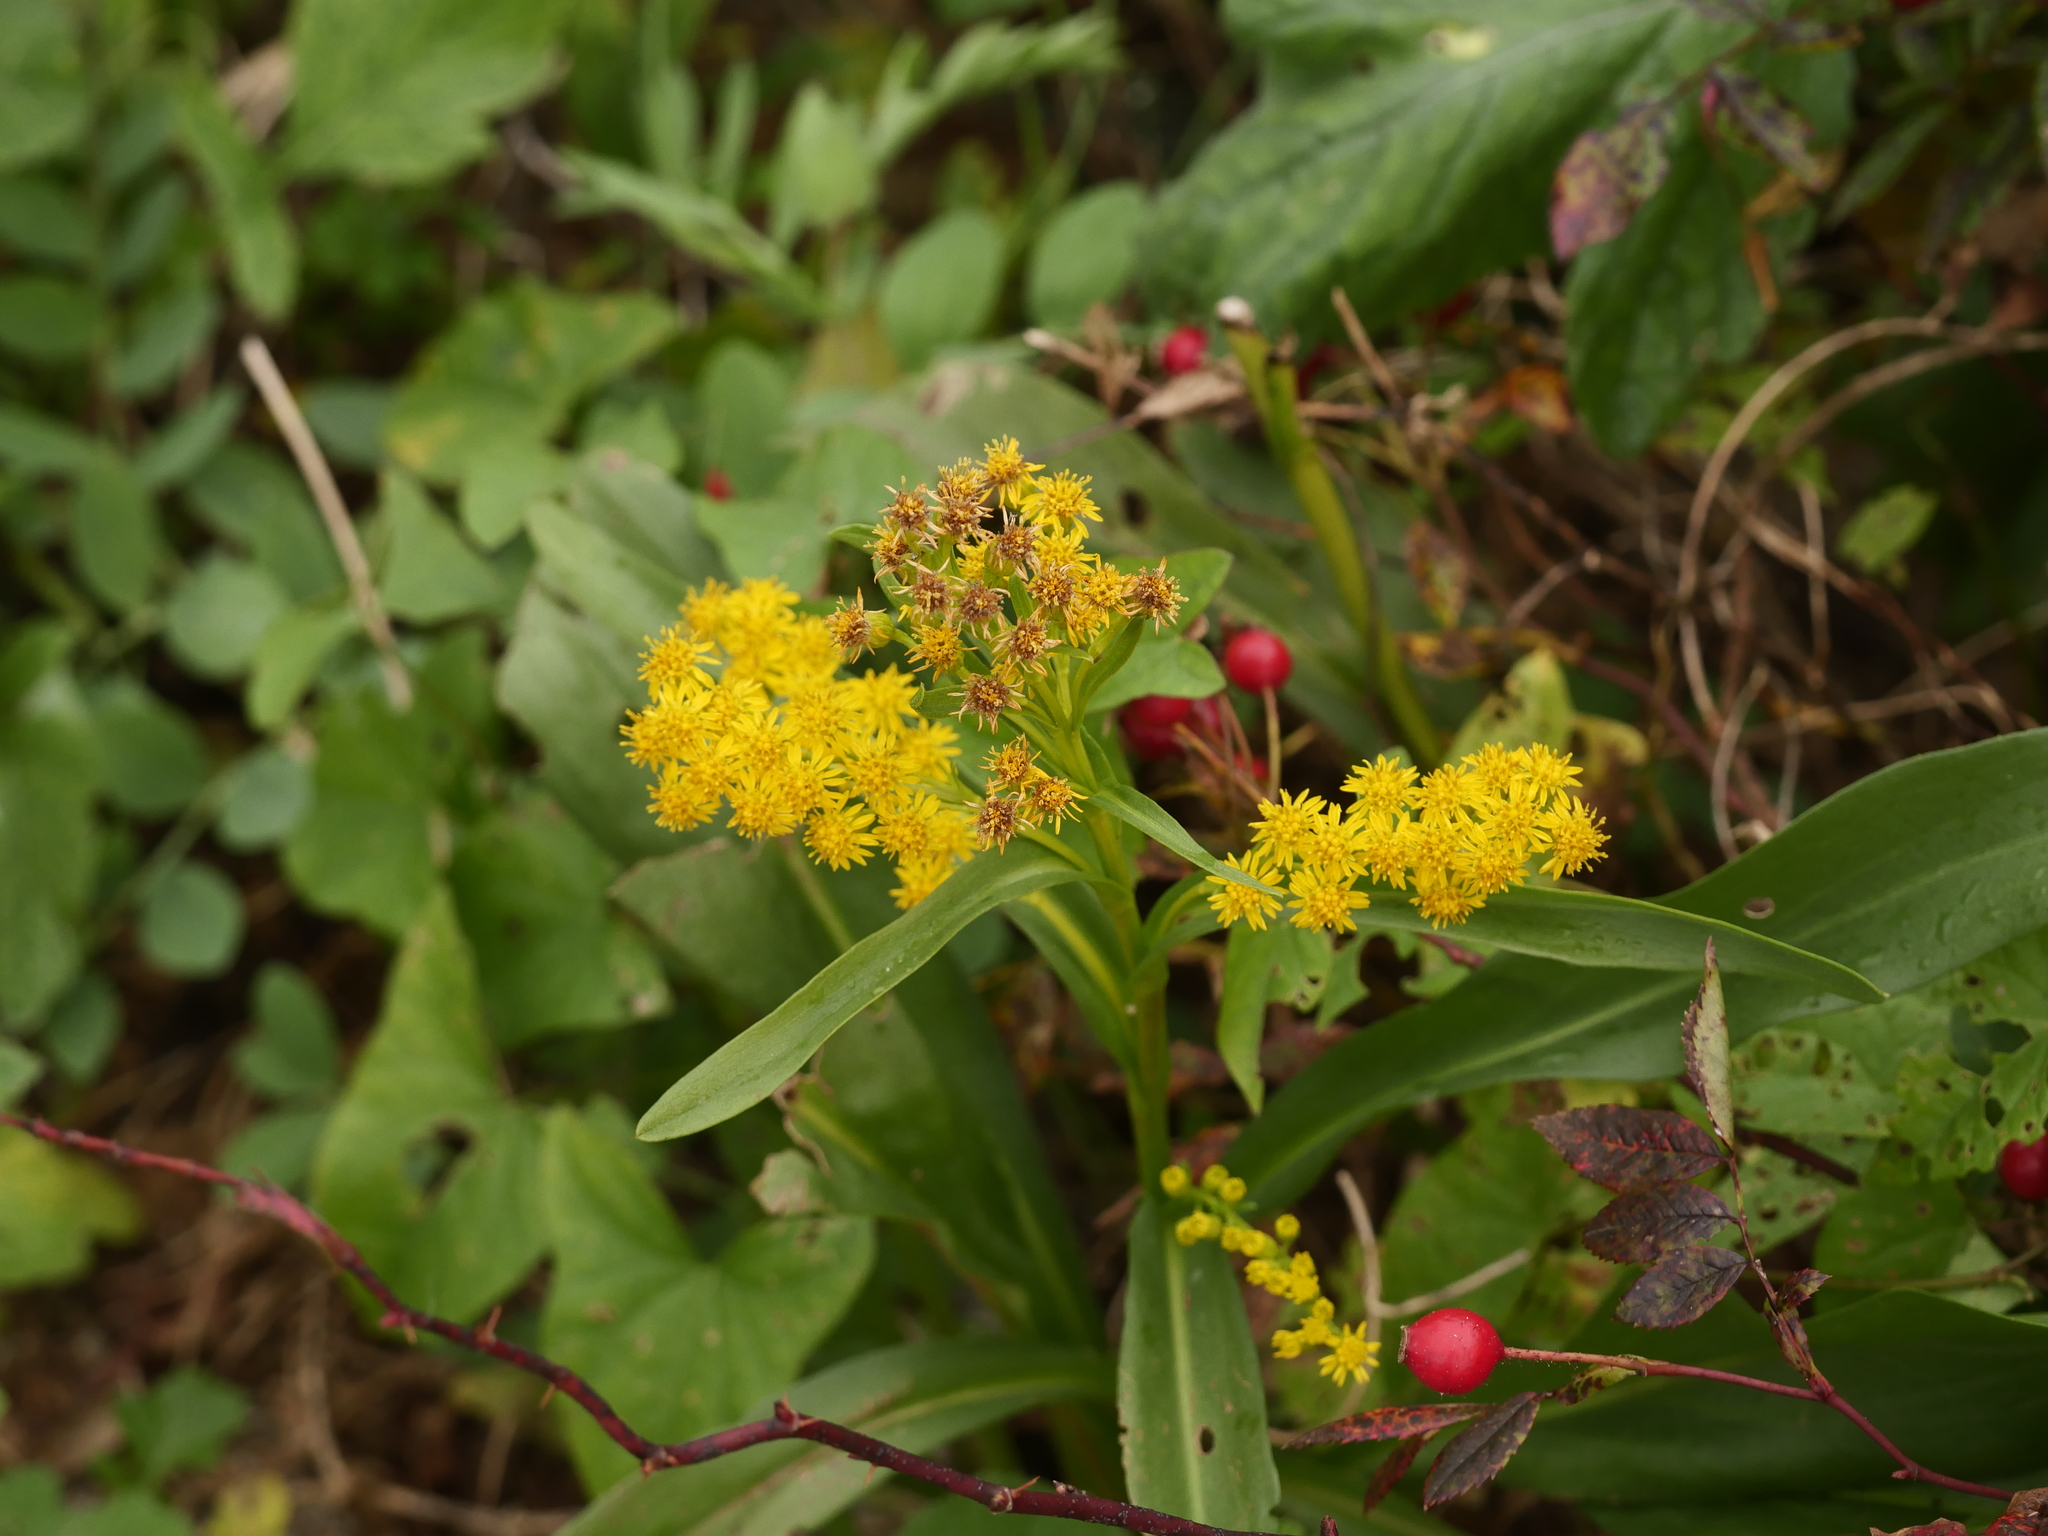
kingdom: Plantae
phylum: Tracheophyta
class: Magnoliopsida
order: Asterales
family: Asteraceae
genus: Solidago
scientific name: Solidago sempervirens
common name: Salt-marsh goldenrod
